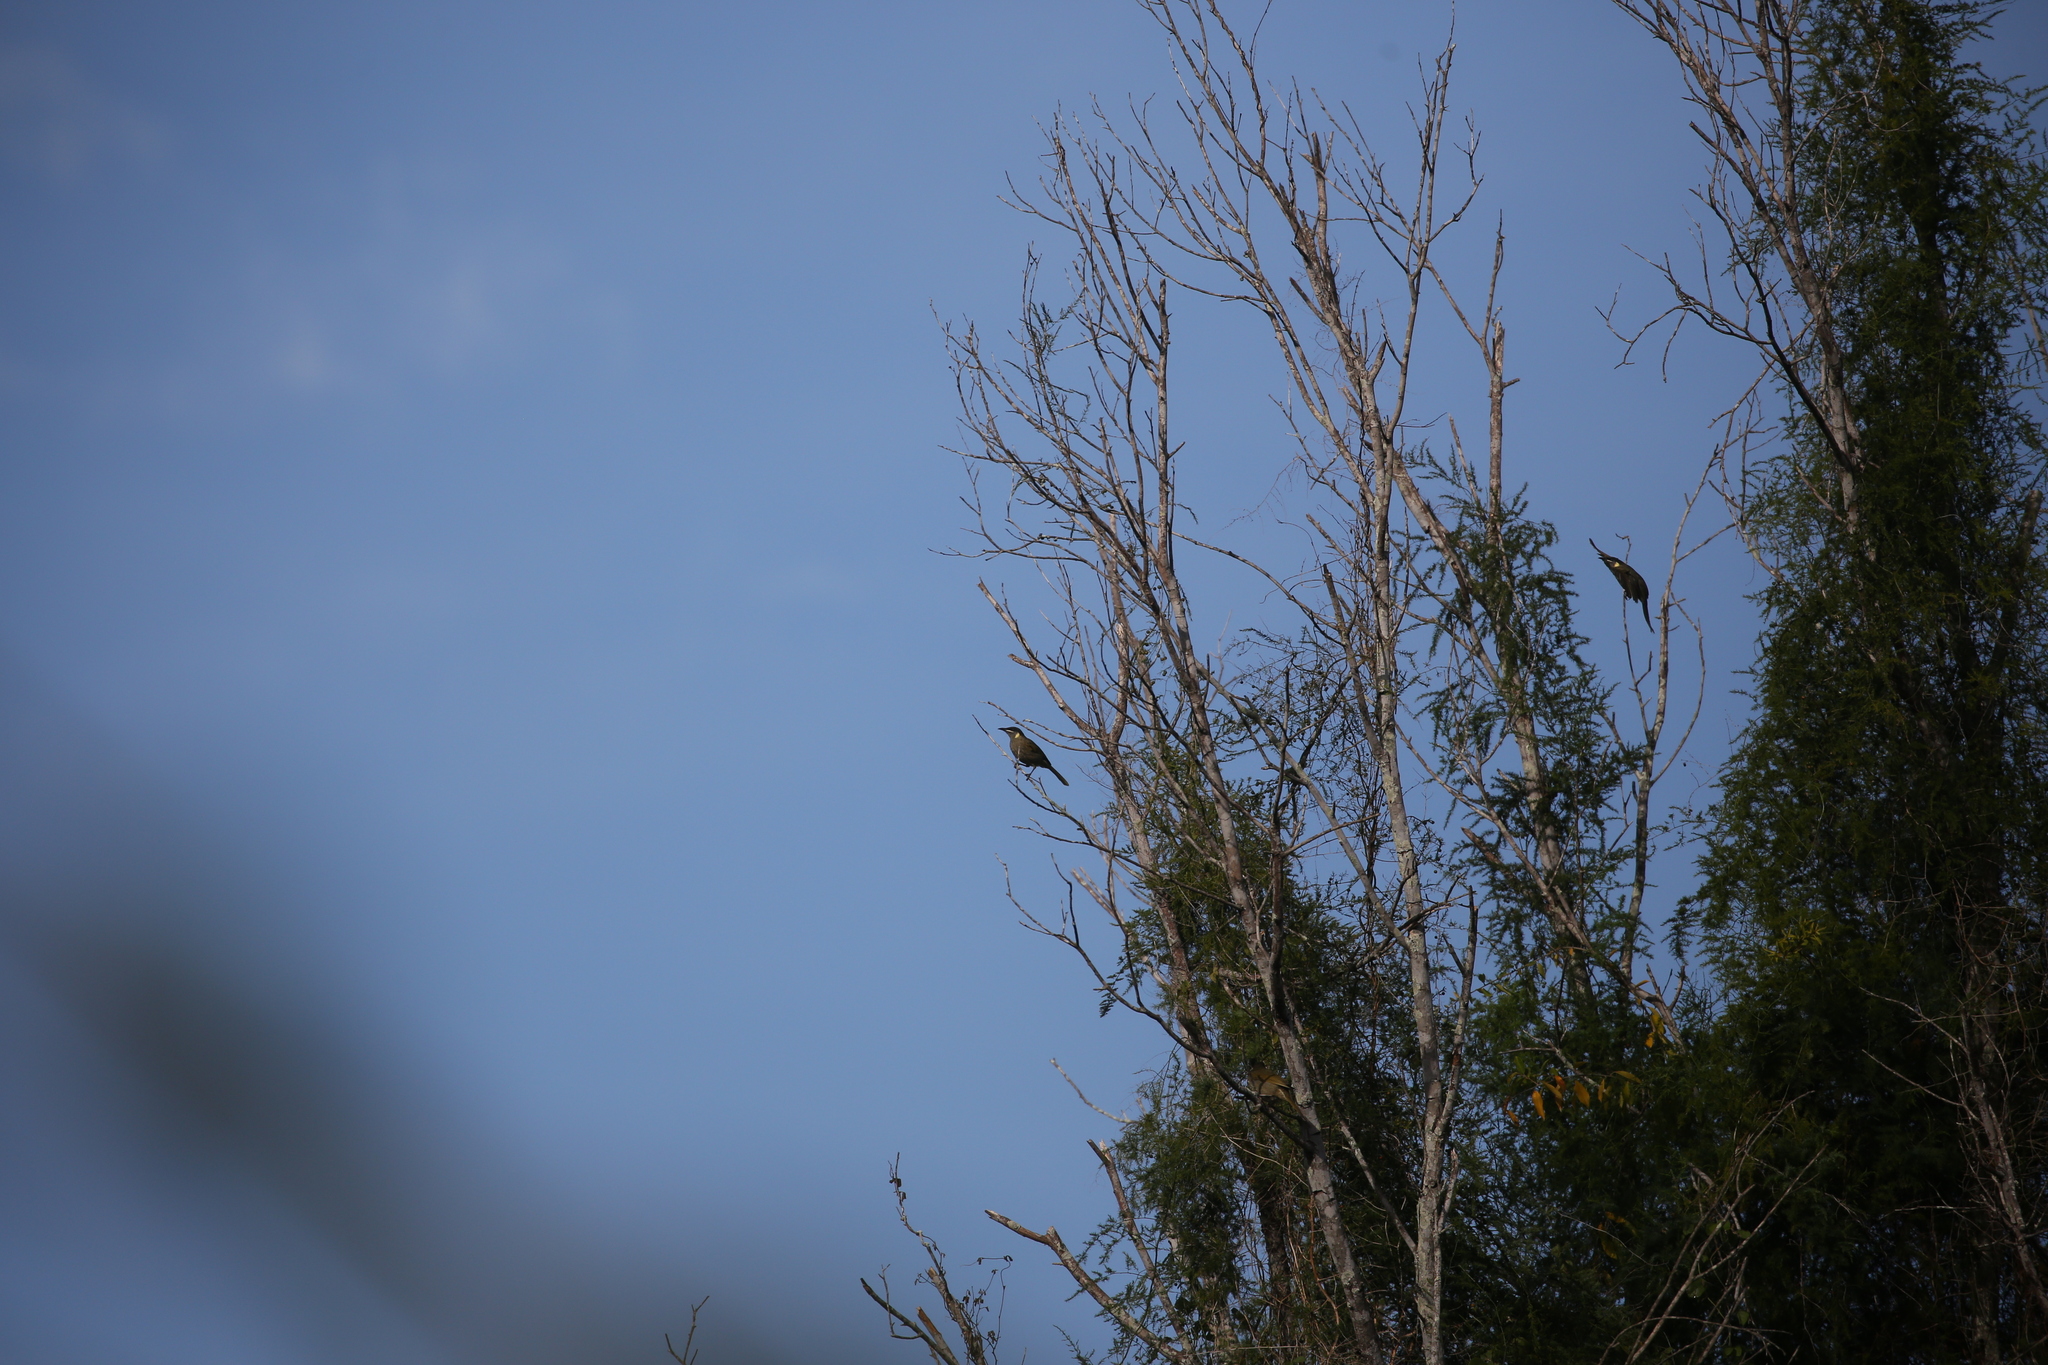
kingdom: Animalia
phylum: Chordata
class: Aves
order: Passeriformes
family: Meliphagidae
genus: Meliphaga
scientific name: Meliphaga lewinii
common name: Lewin's honeyeater
